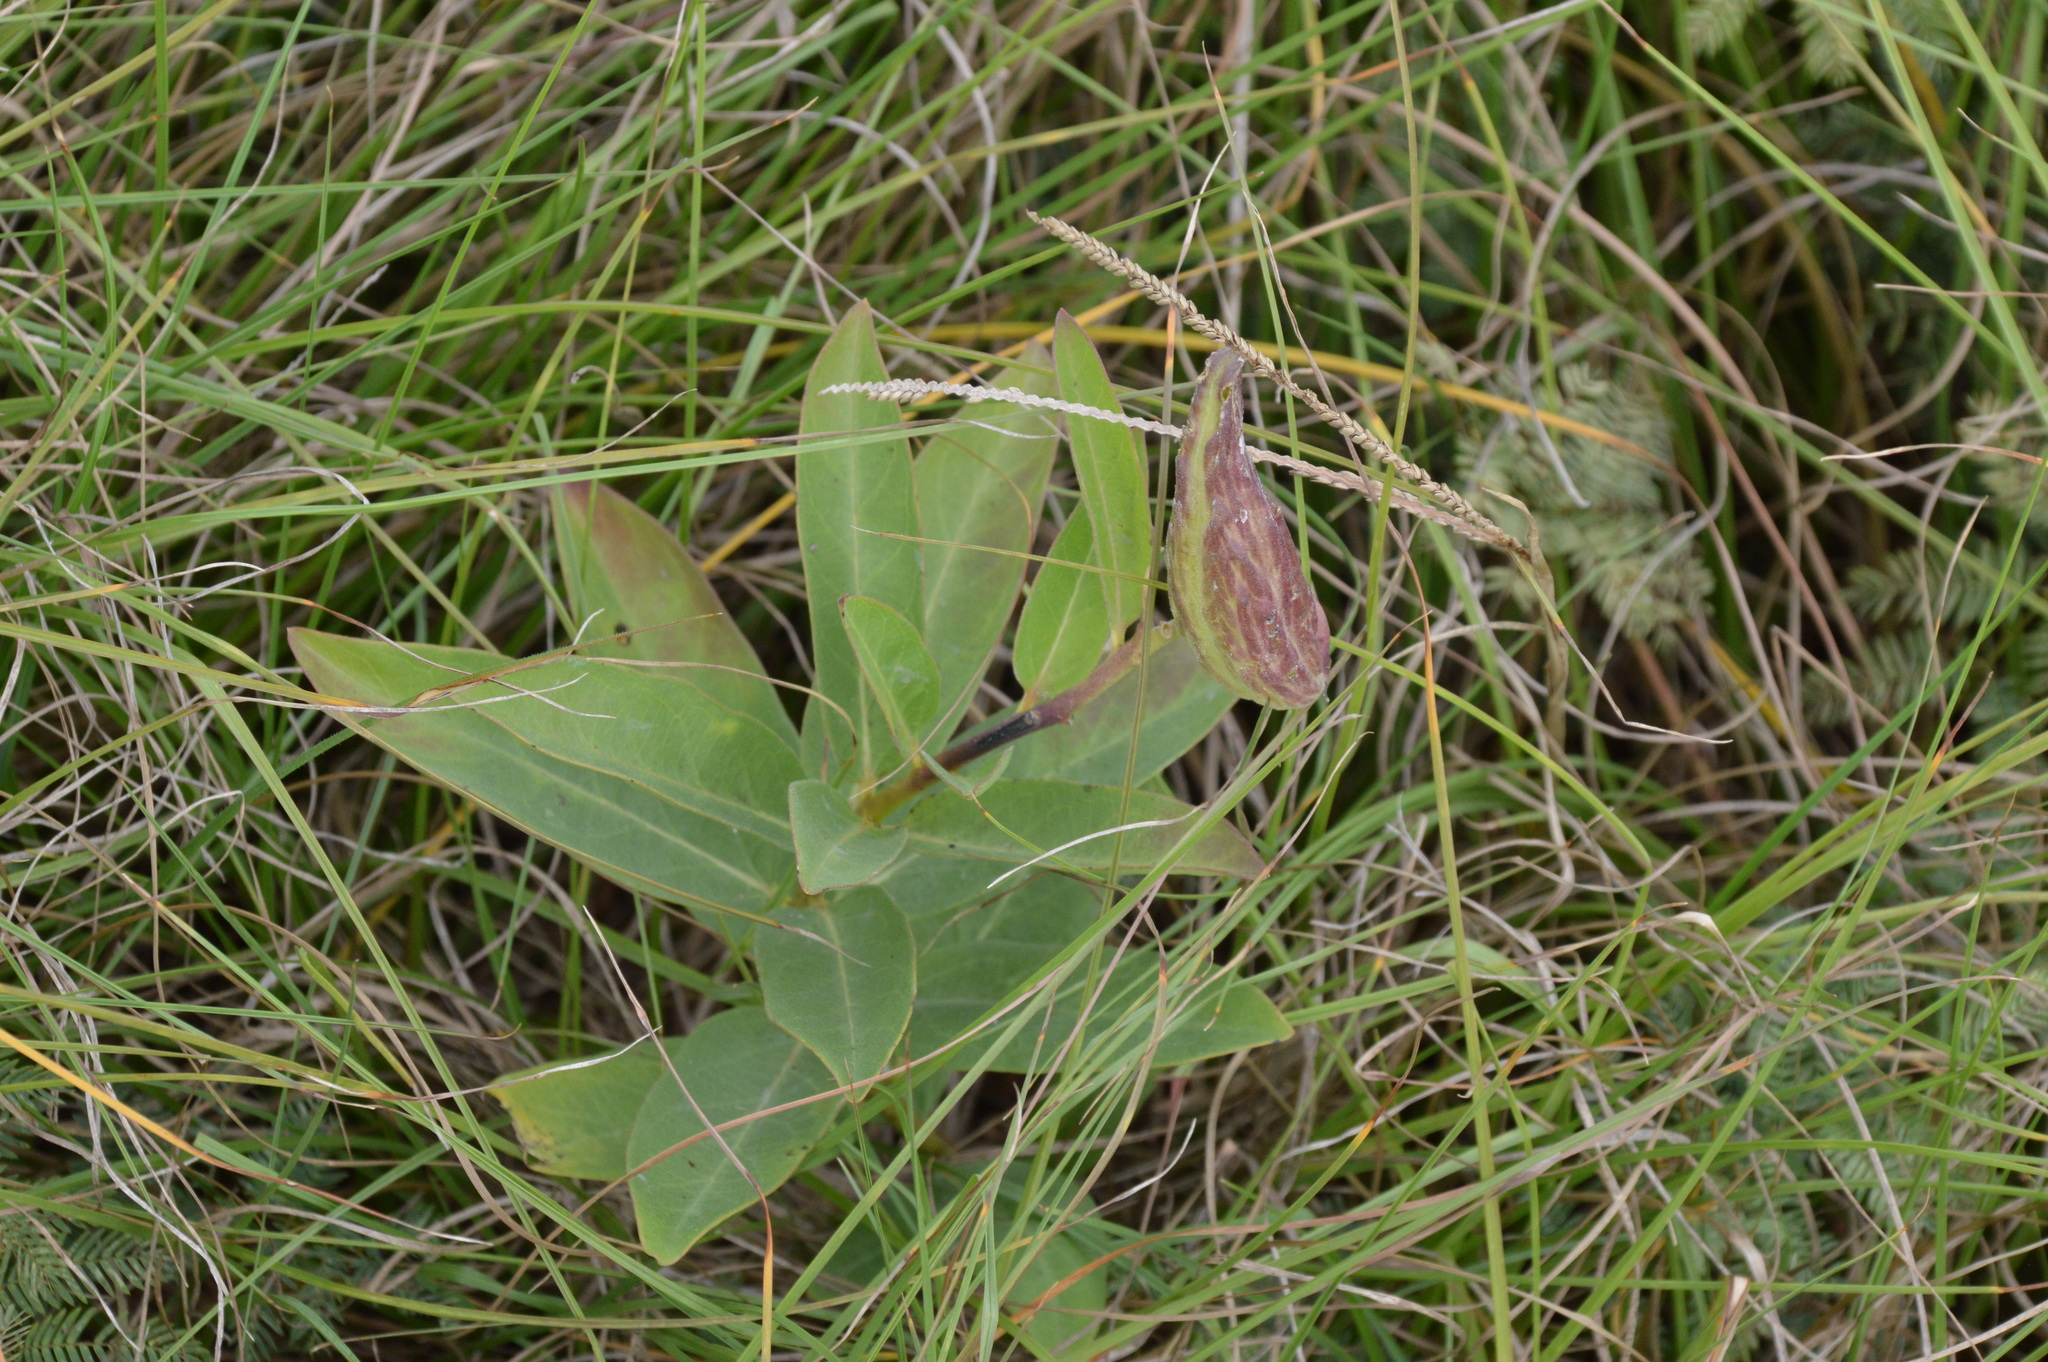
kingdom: Plantae
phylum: Tracheophyta
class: Magnoliopsida
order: Gentianales
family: Apocynaceae
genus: Asclepias
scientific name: Asclepias viridis
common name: Antelope-horns
